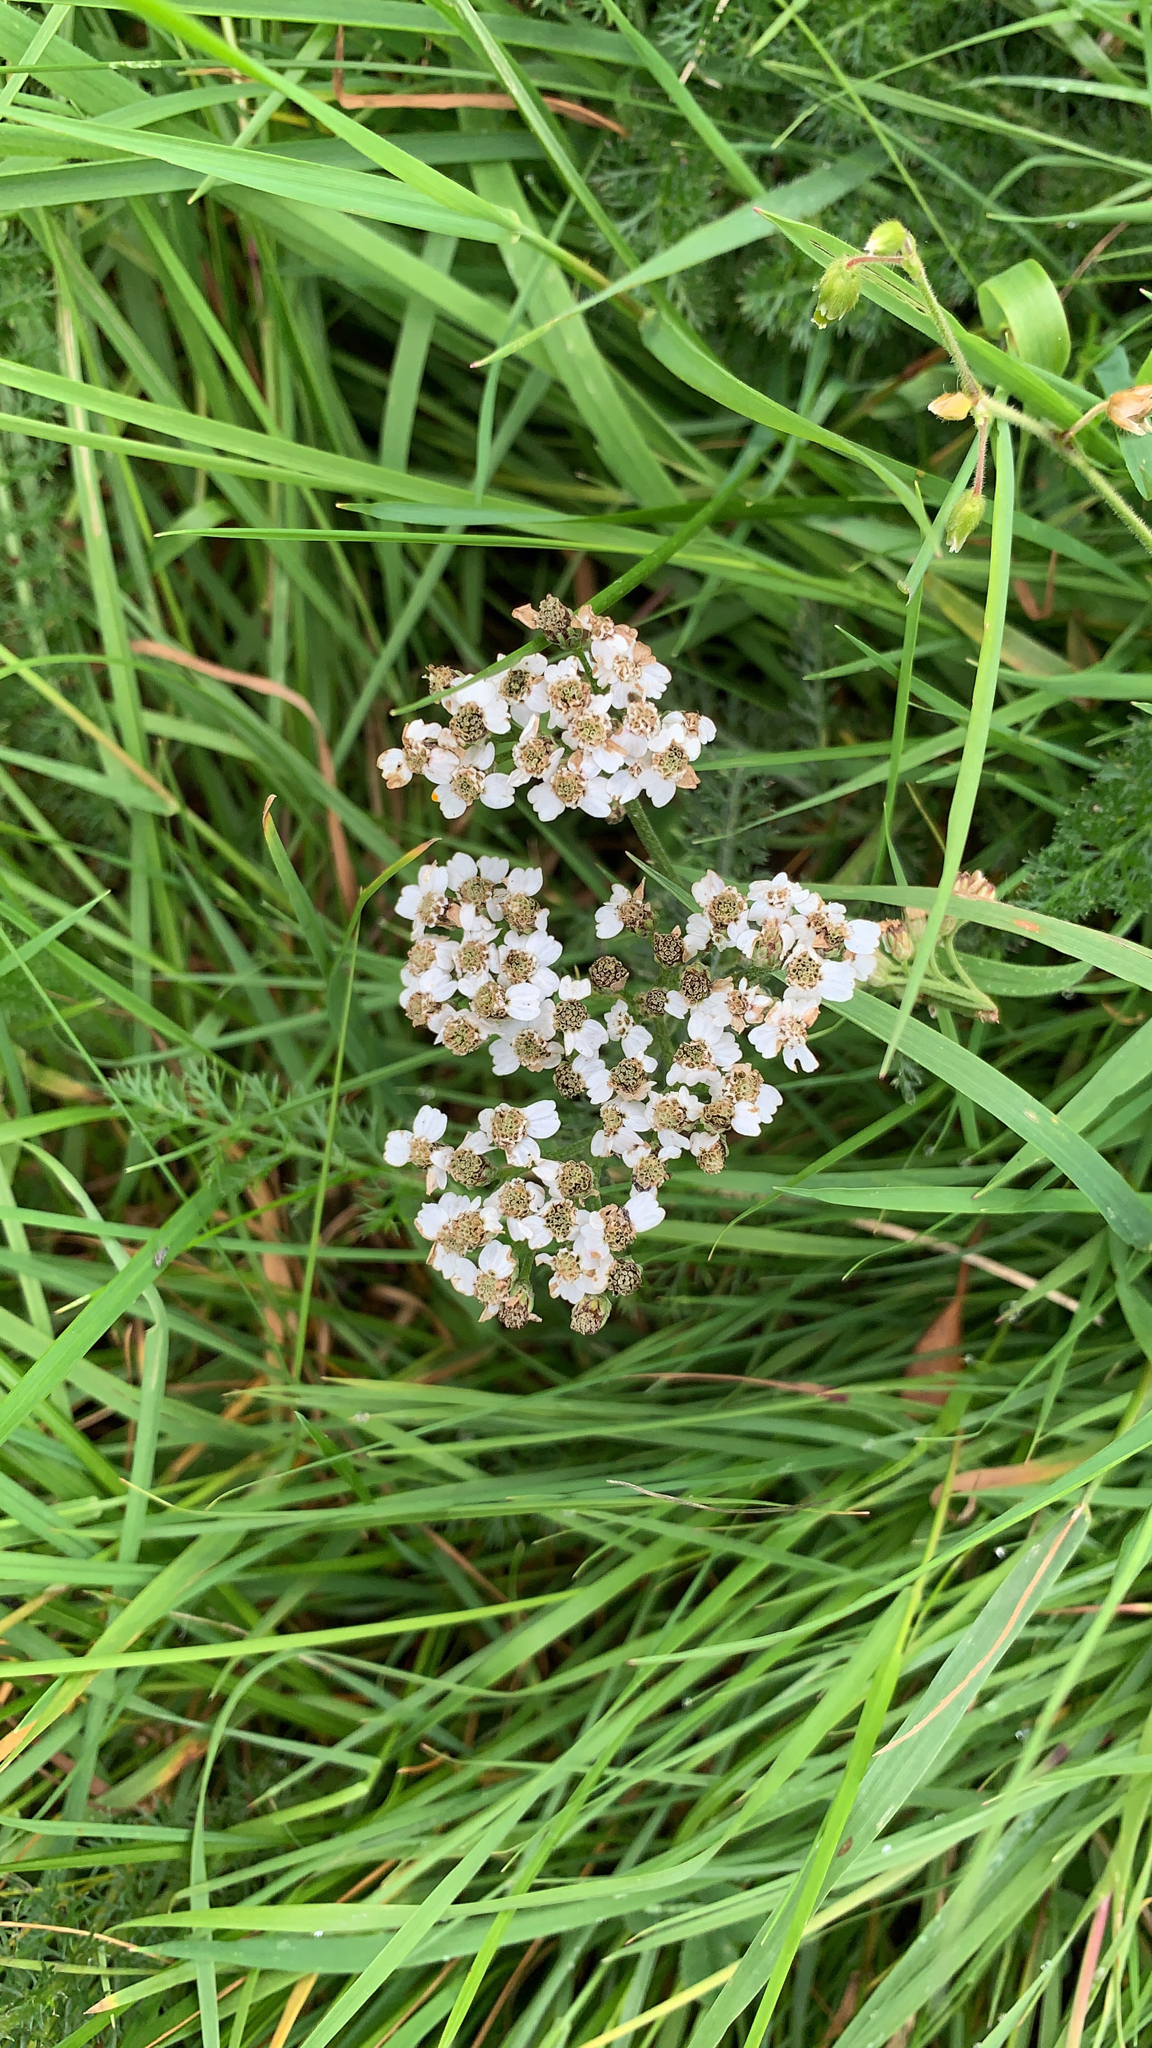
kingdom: Plantae
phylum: Tracheophyta
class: Magnoliopsida
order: Asterales
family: Asteraceae
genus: Achillea
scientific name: Achillea millefolium
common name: Yarrow
